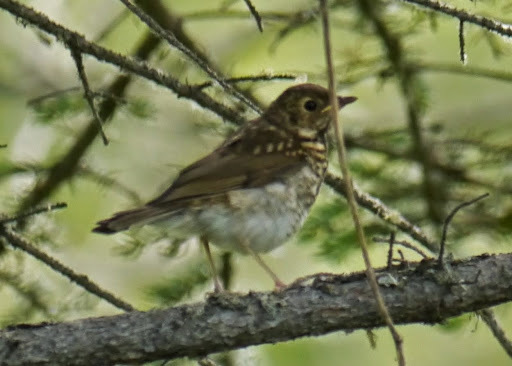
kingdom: Animalia
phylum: Chordata
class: Aves
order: Passeriformes
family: Turdidae
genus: Catharus
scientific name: Catharus ustulatus
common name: Swainson's thrush
